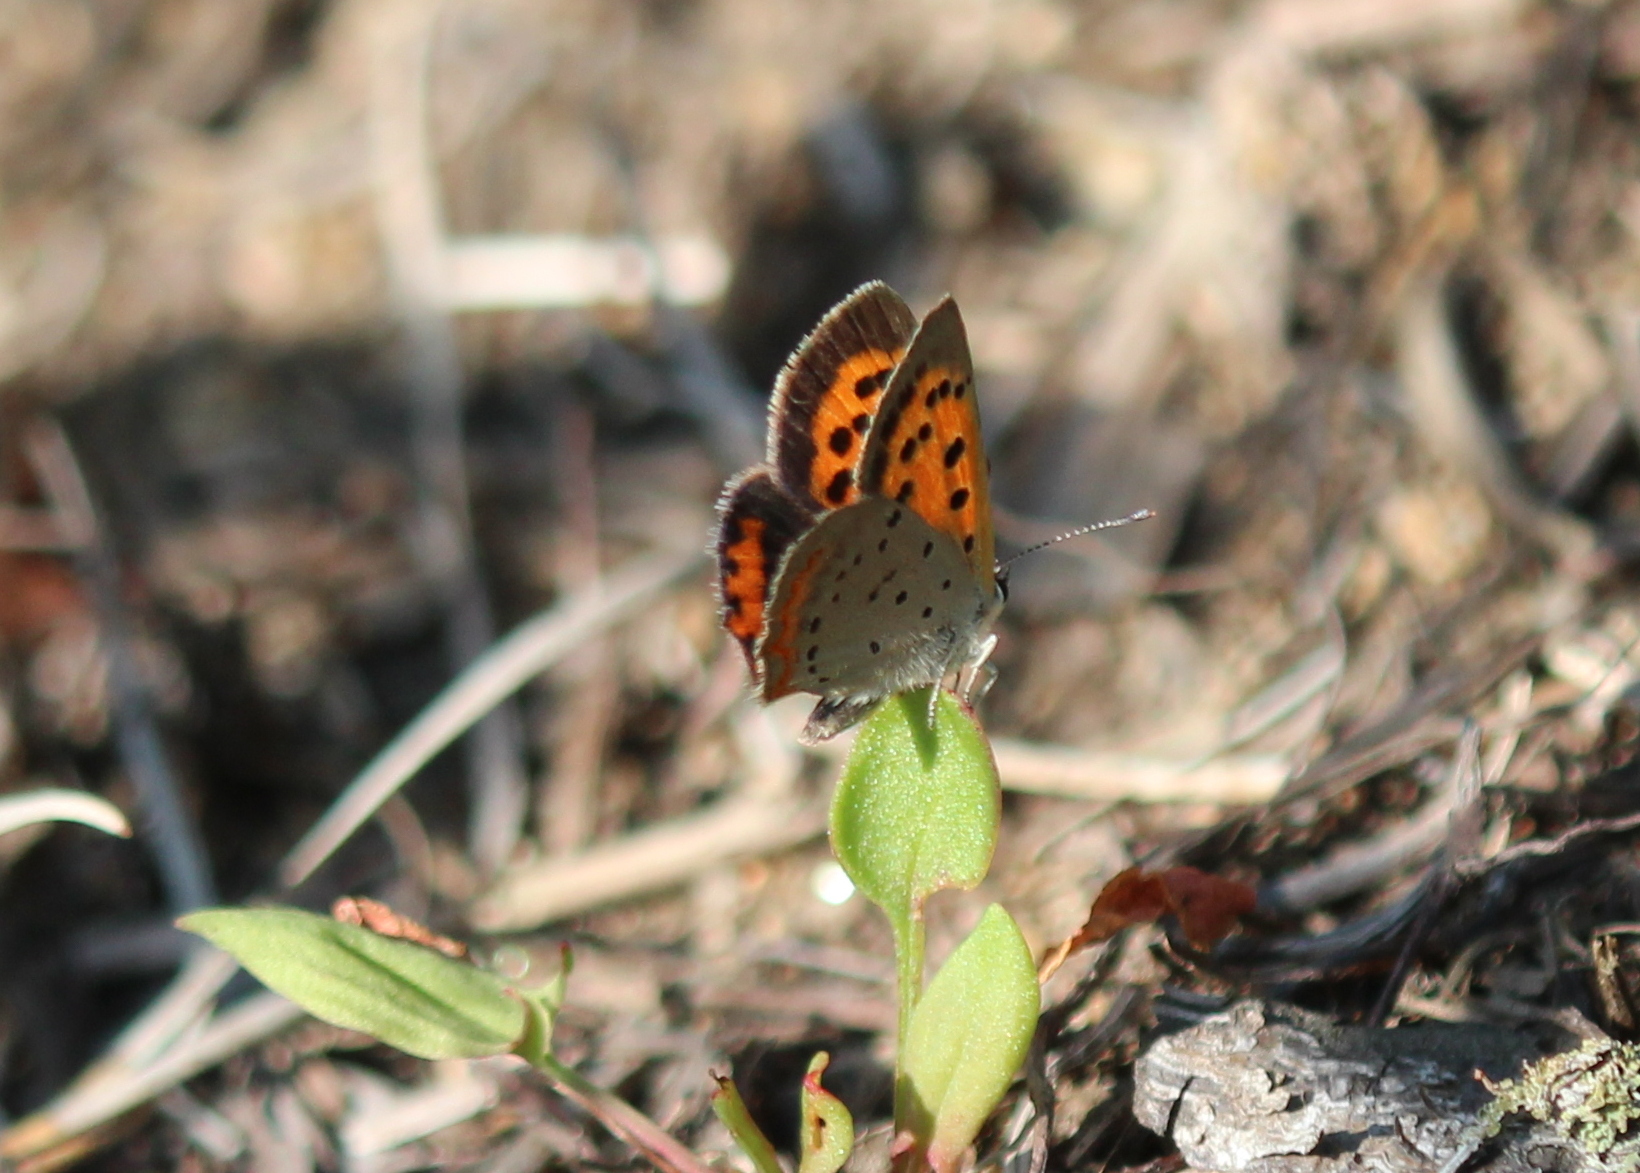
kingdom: Animalia
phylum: Arthropoda
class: Insecta
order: Lepidoptera
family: Lycaenidae
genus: Lycaena
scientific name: Lycaena hypophlaeas
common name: American copper
